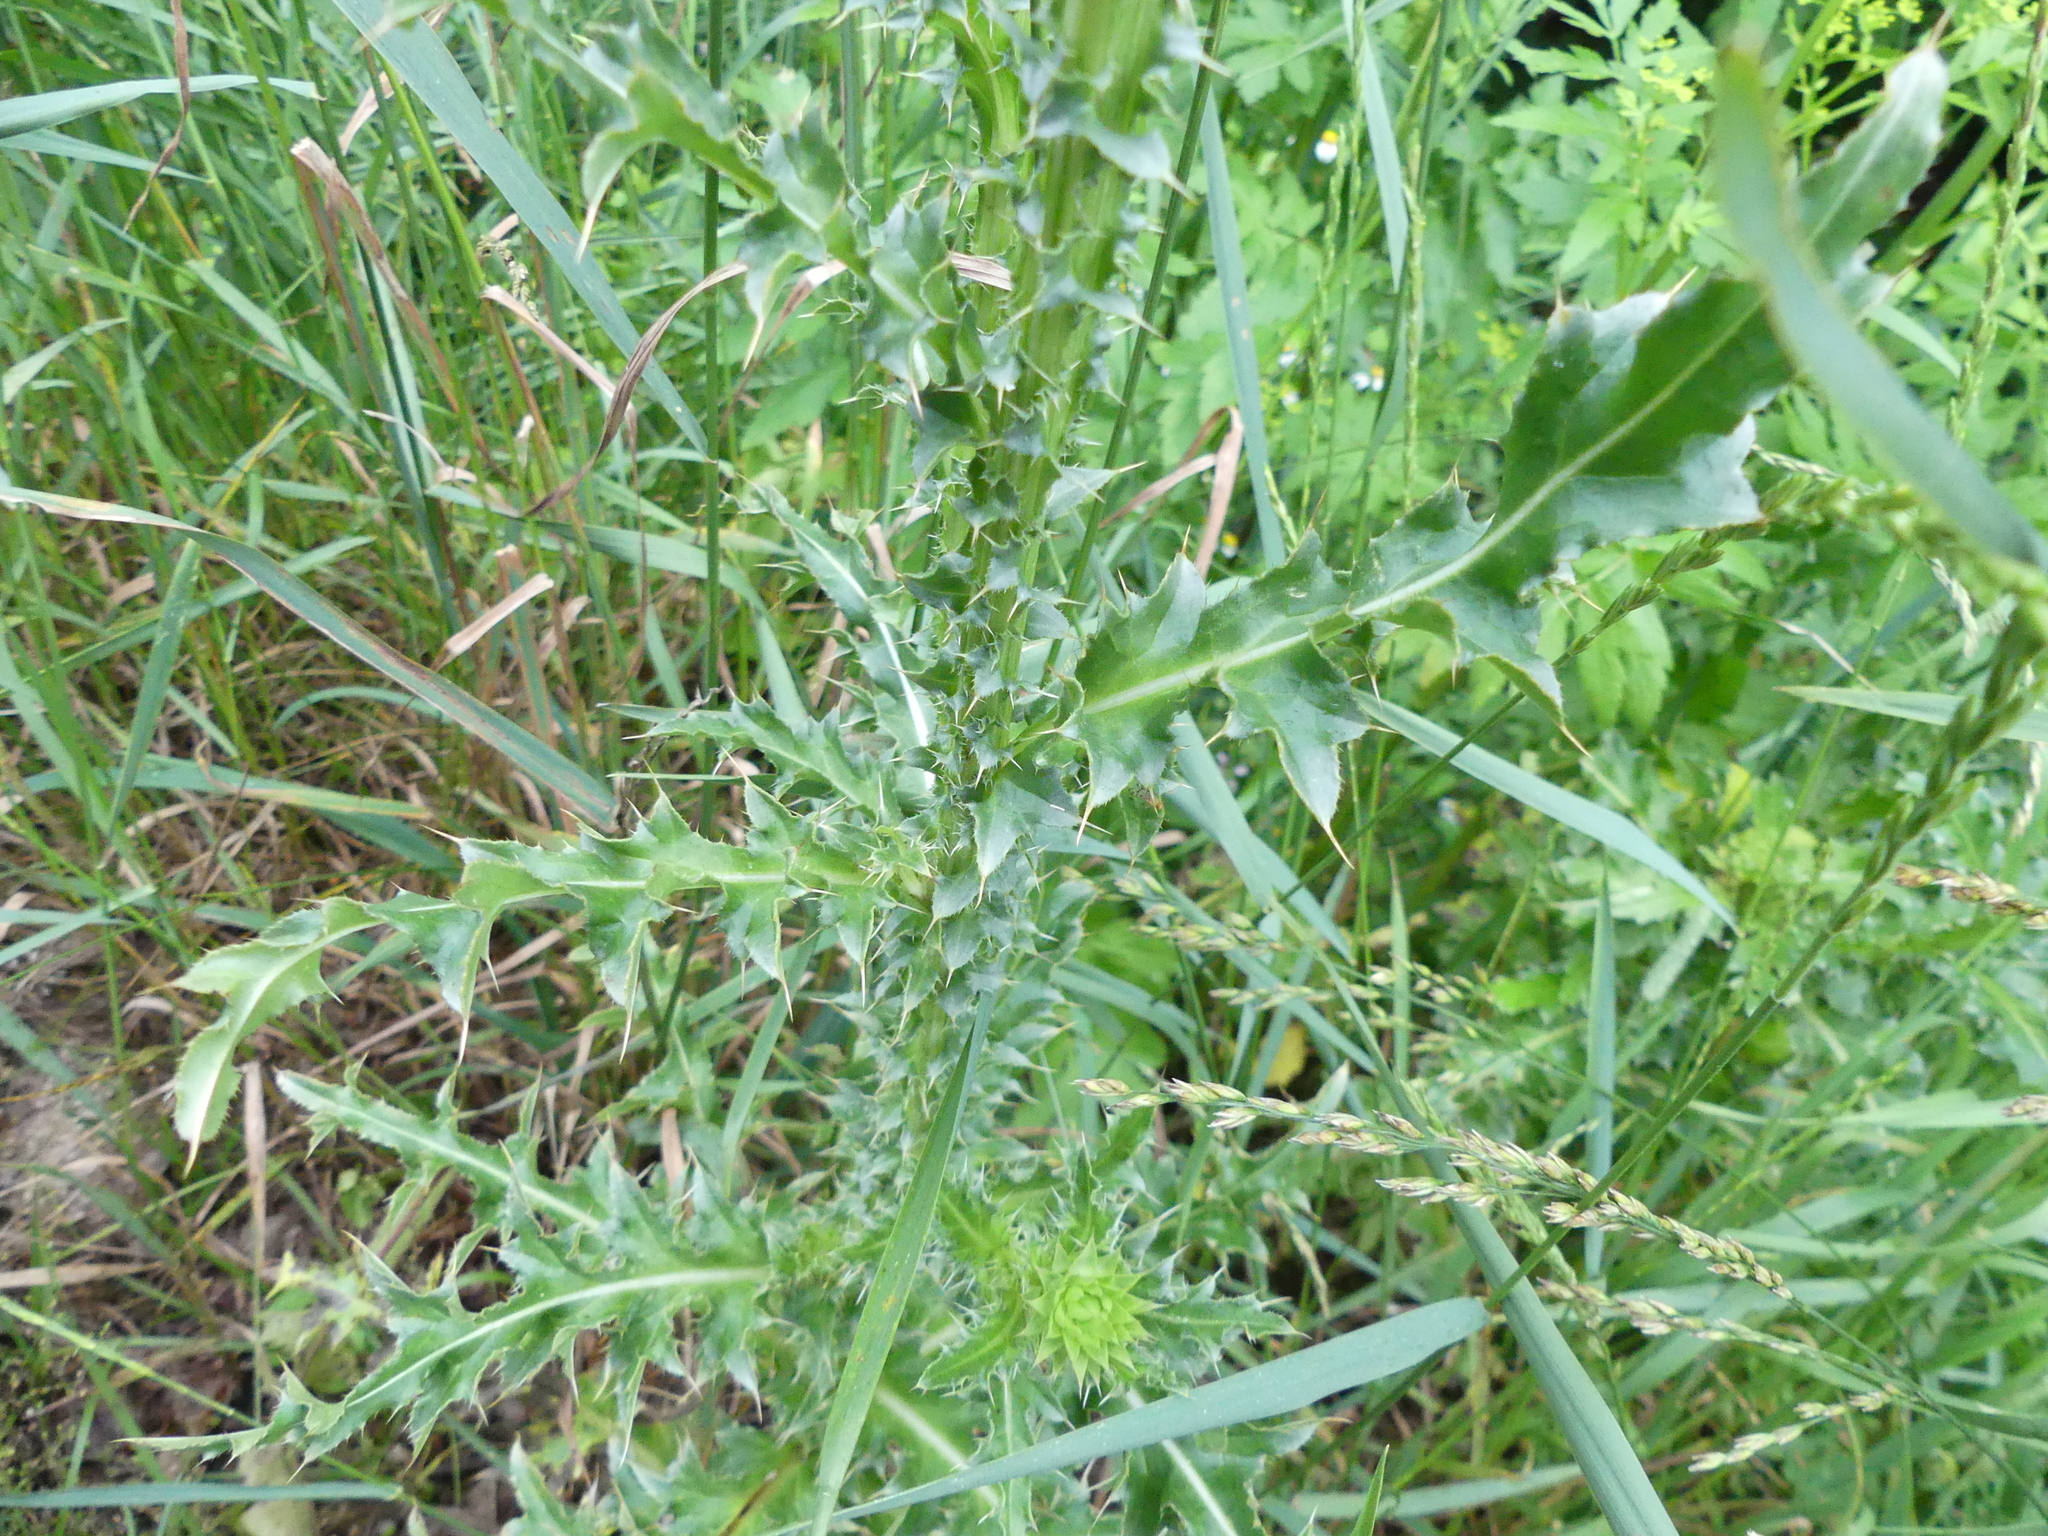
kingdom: Plantae
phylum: Tracheophyta
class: Magnoliopsida
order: Asterales
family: Asteraceae
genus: Carduus
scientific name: Carduus nutans
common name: Musk thistle
